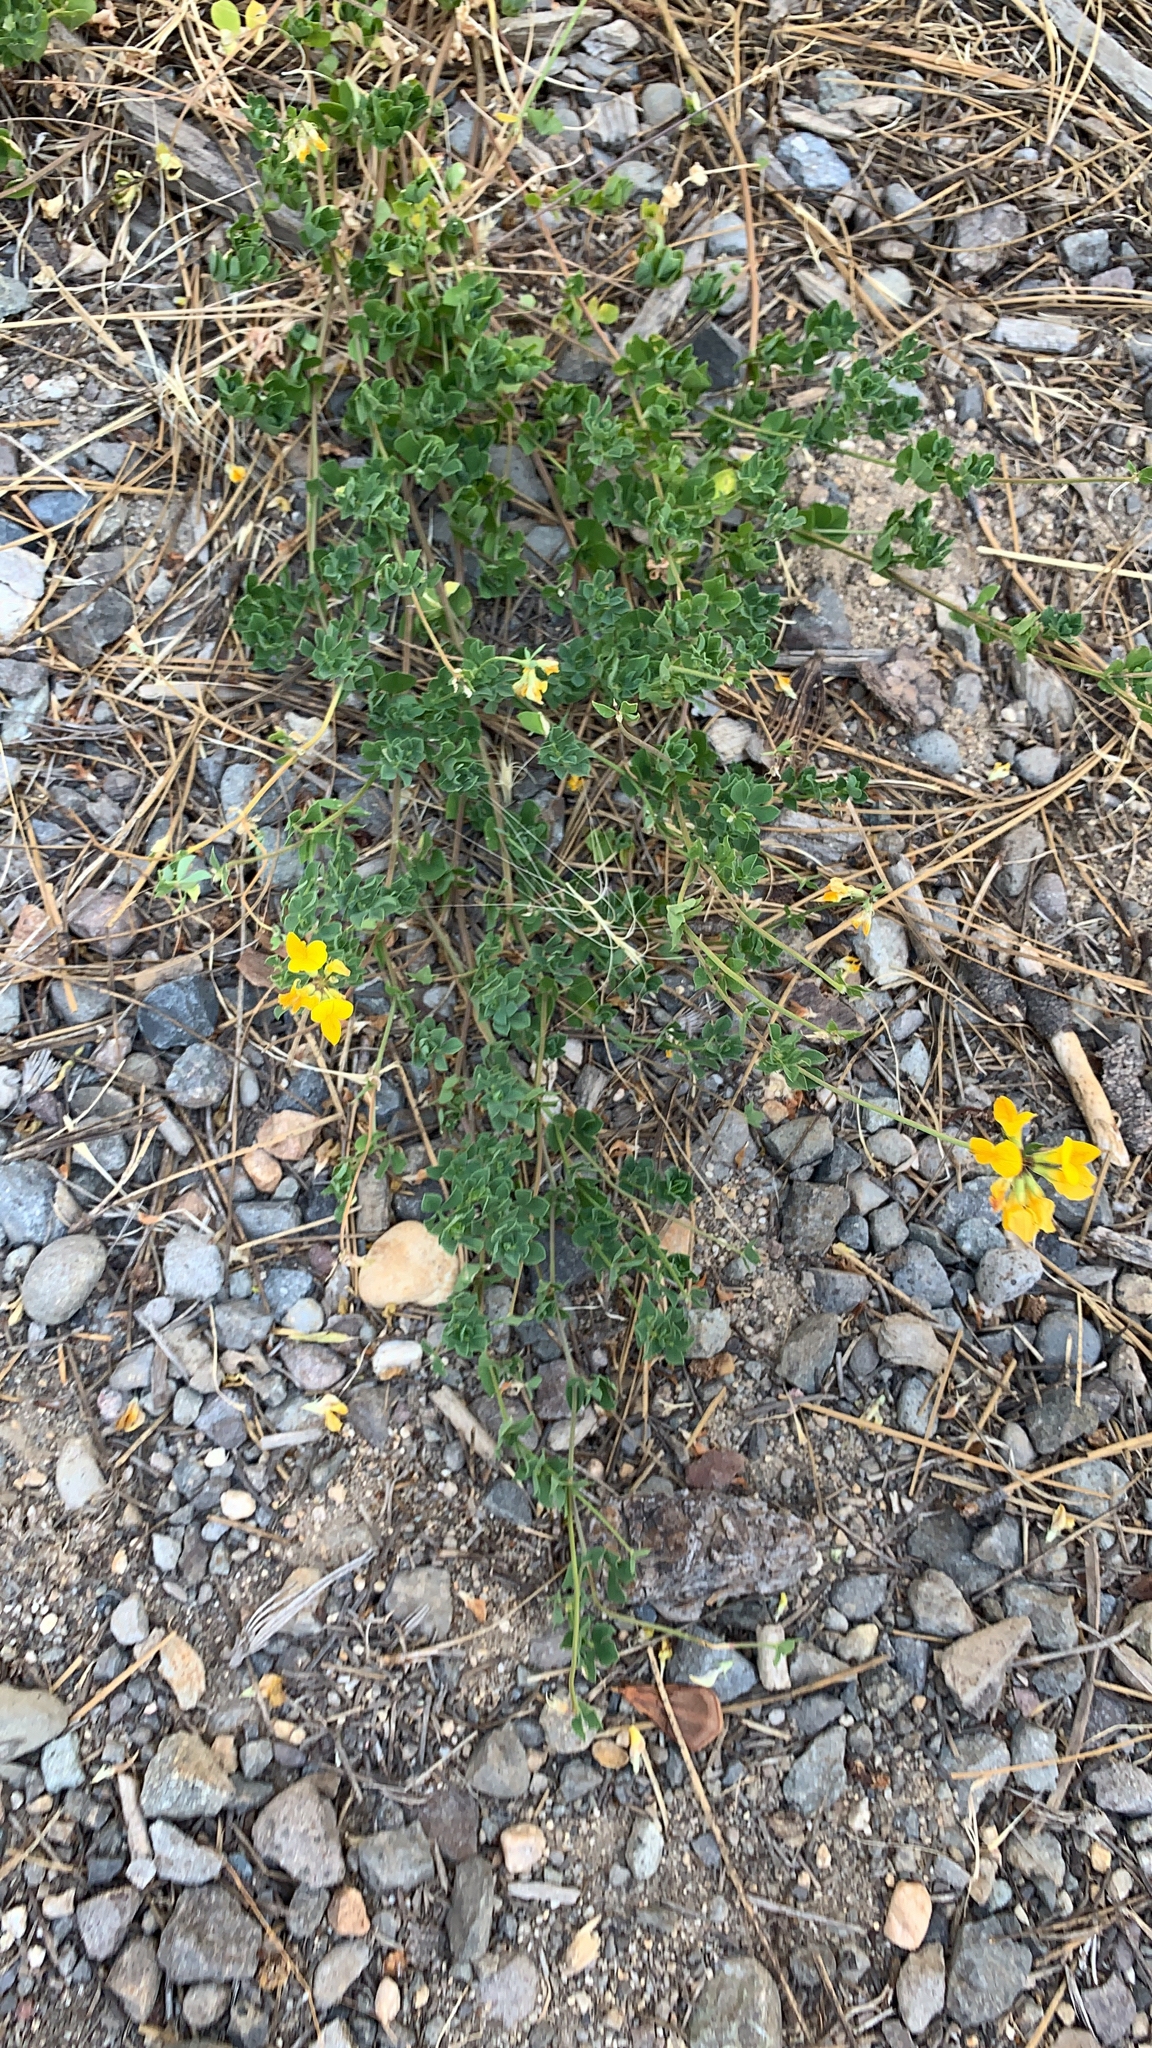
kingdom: Plantae
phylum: Tracheophyta
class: Magnoliopsida
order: Fabales
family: Fabaceae
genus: Lotus
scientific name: Lotus corniculatus
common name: Common bird's-foot-trefoil
